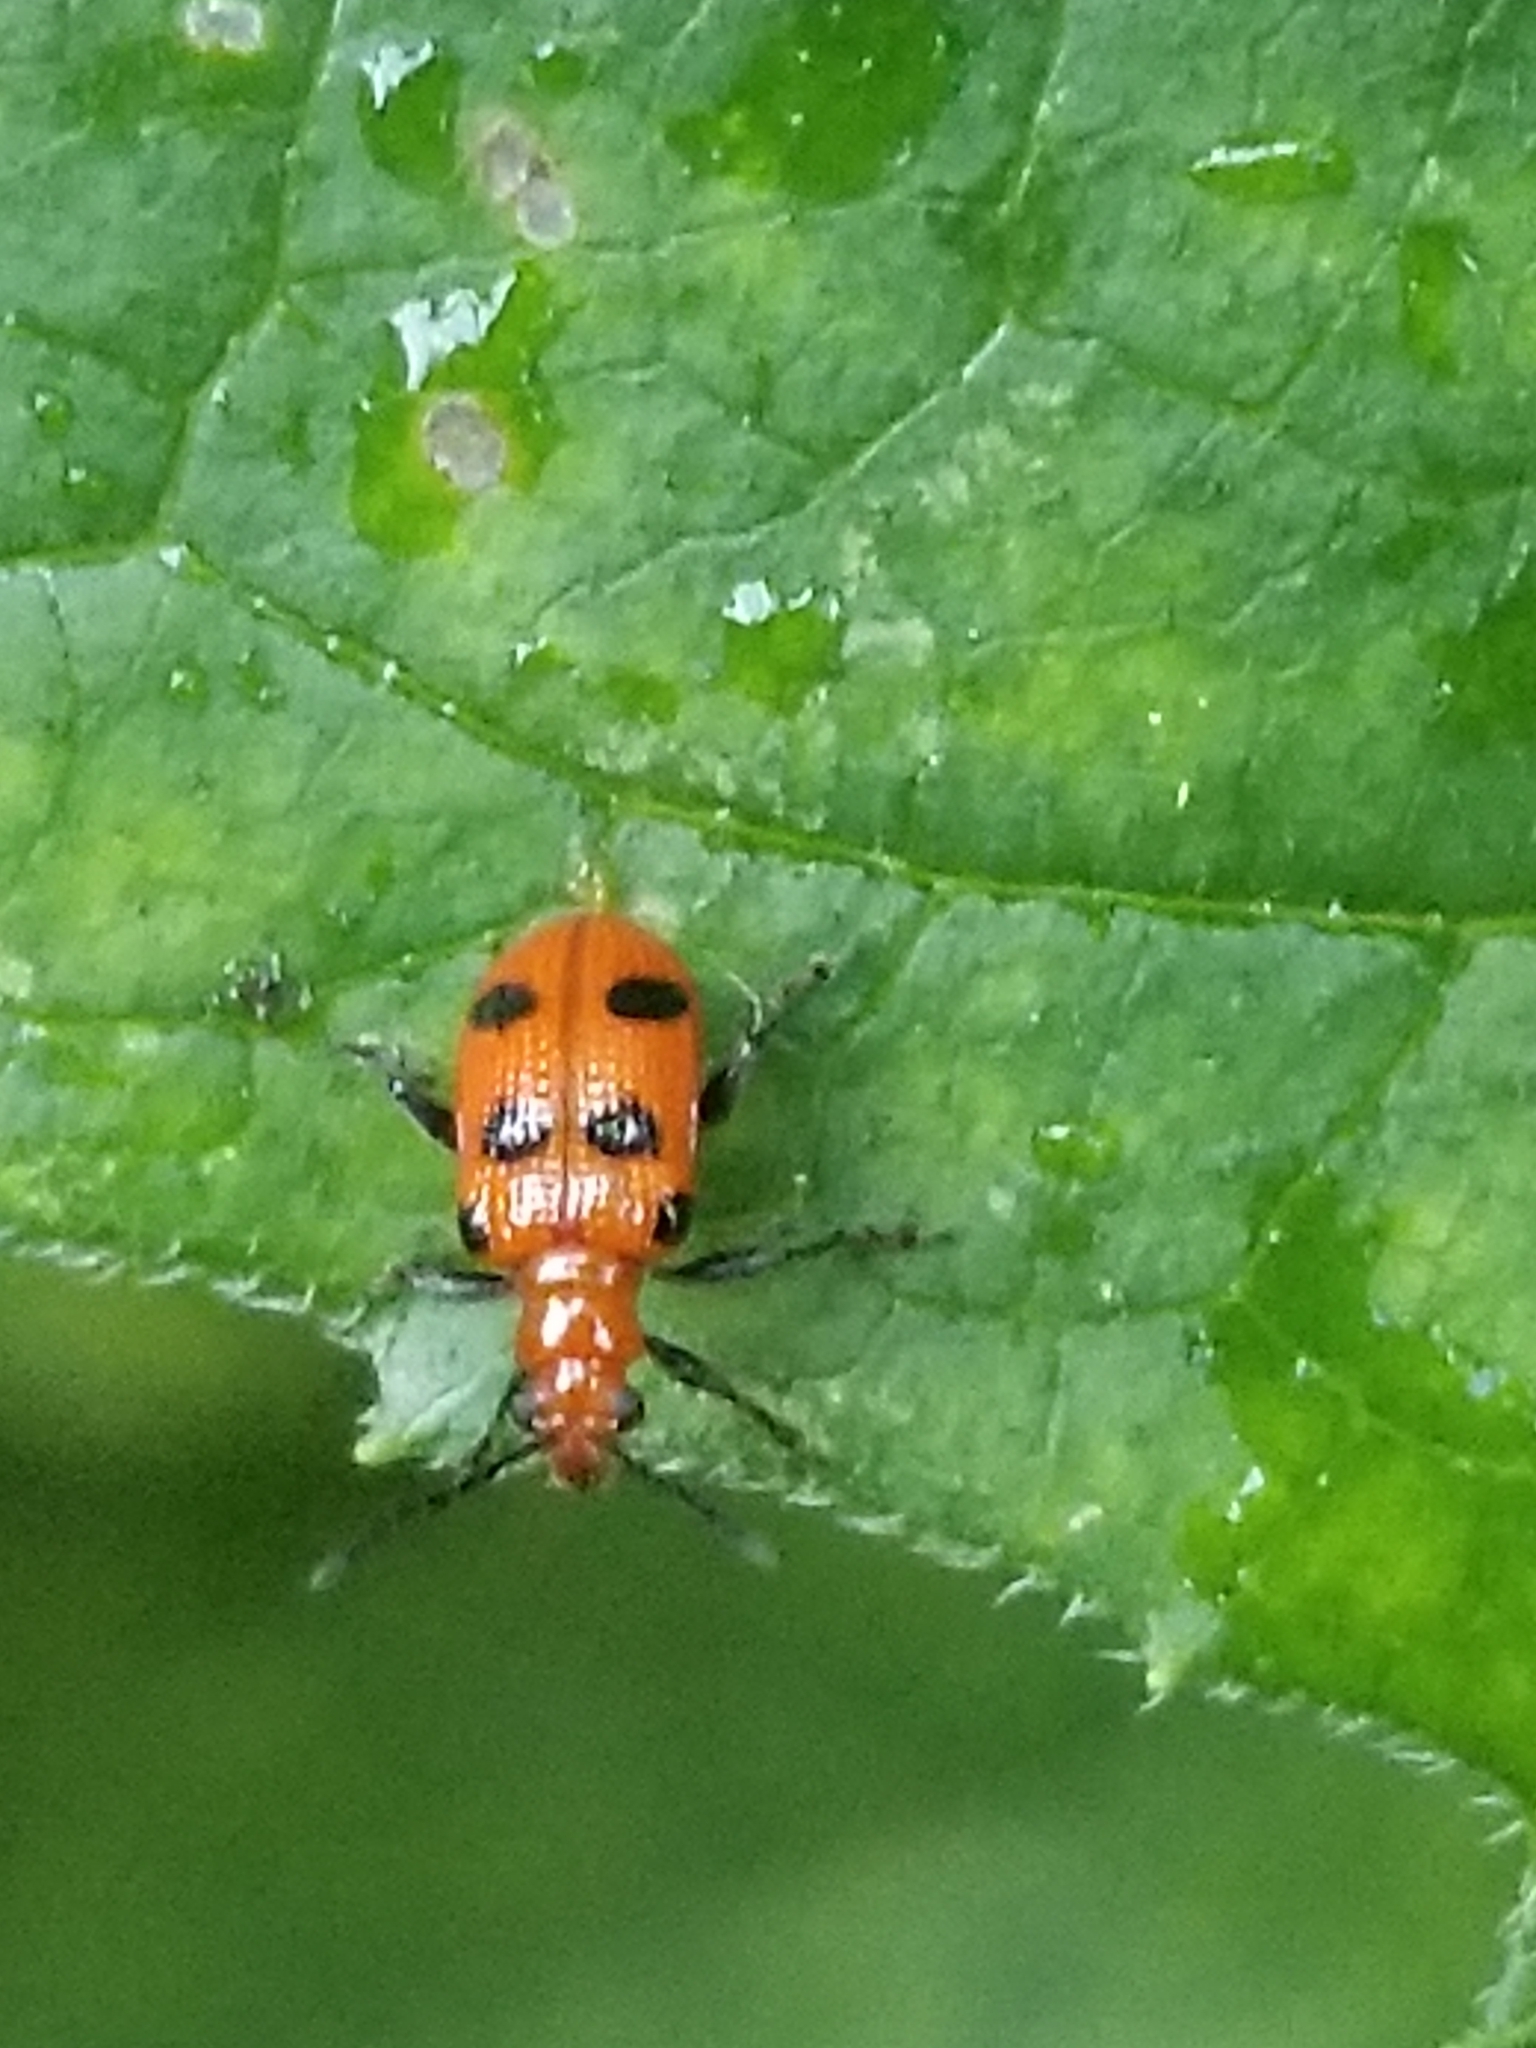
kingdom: Animalia
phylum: Arthropoda
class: Insecta
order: Coleoptera
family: Chrysomelidae
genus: Neolema
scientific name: Neolema sexpunctata
